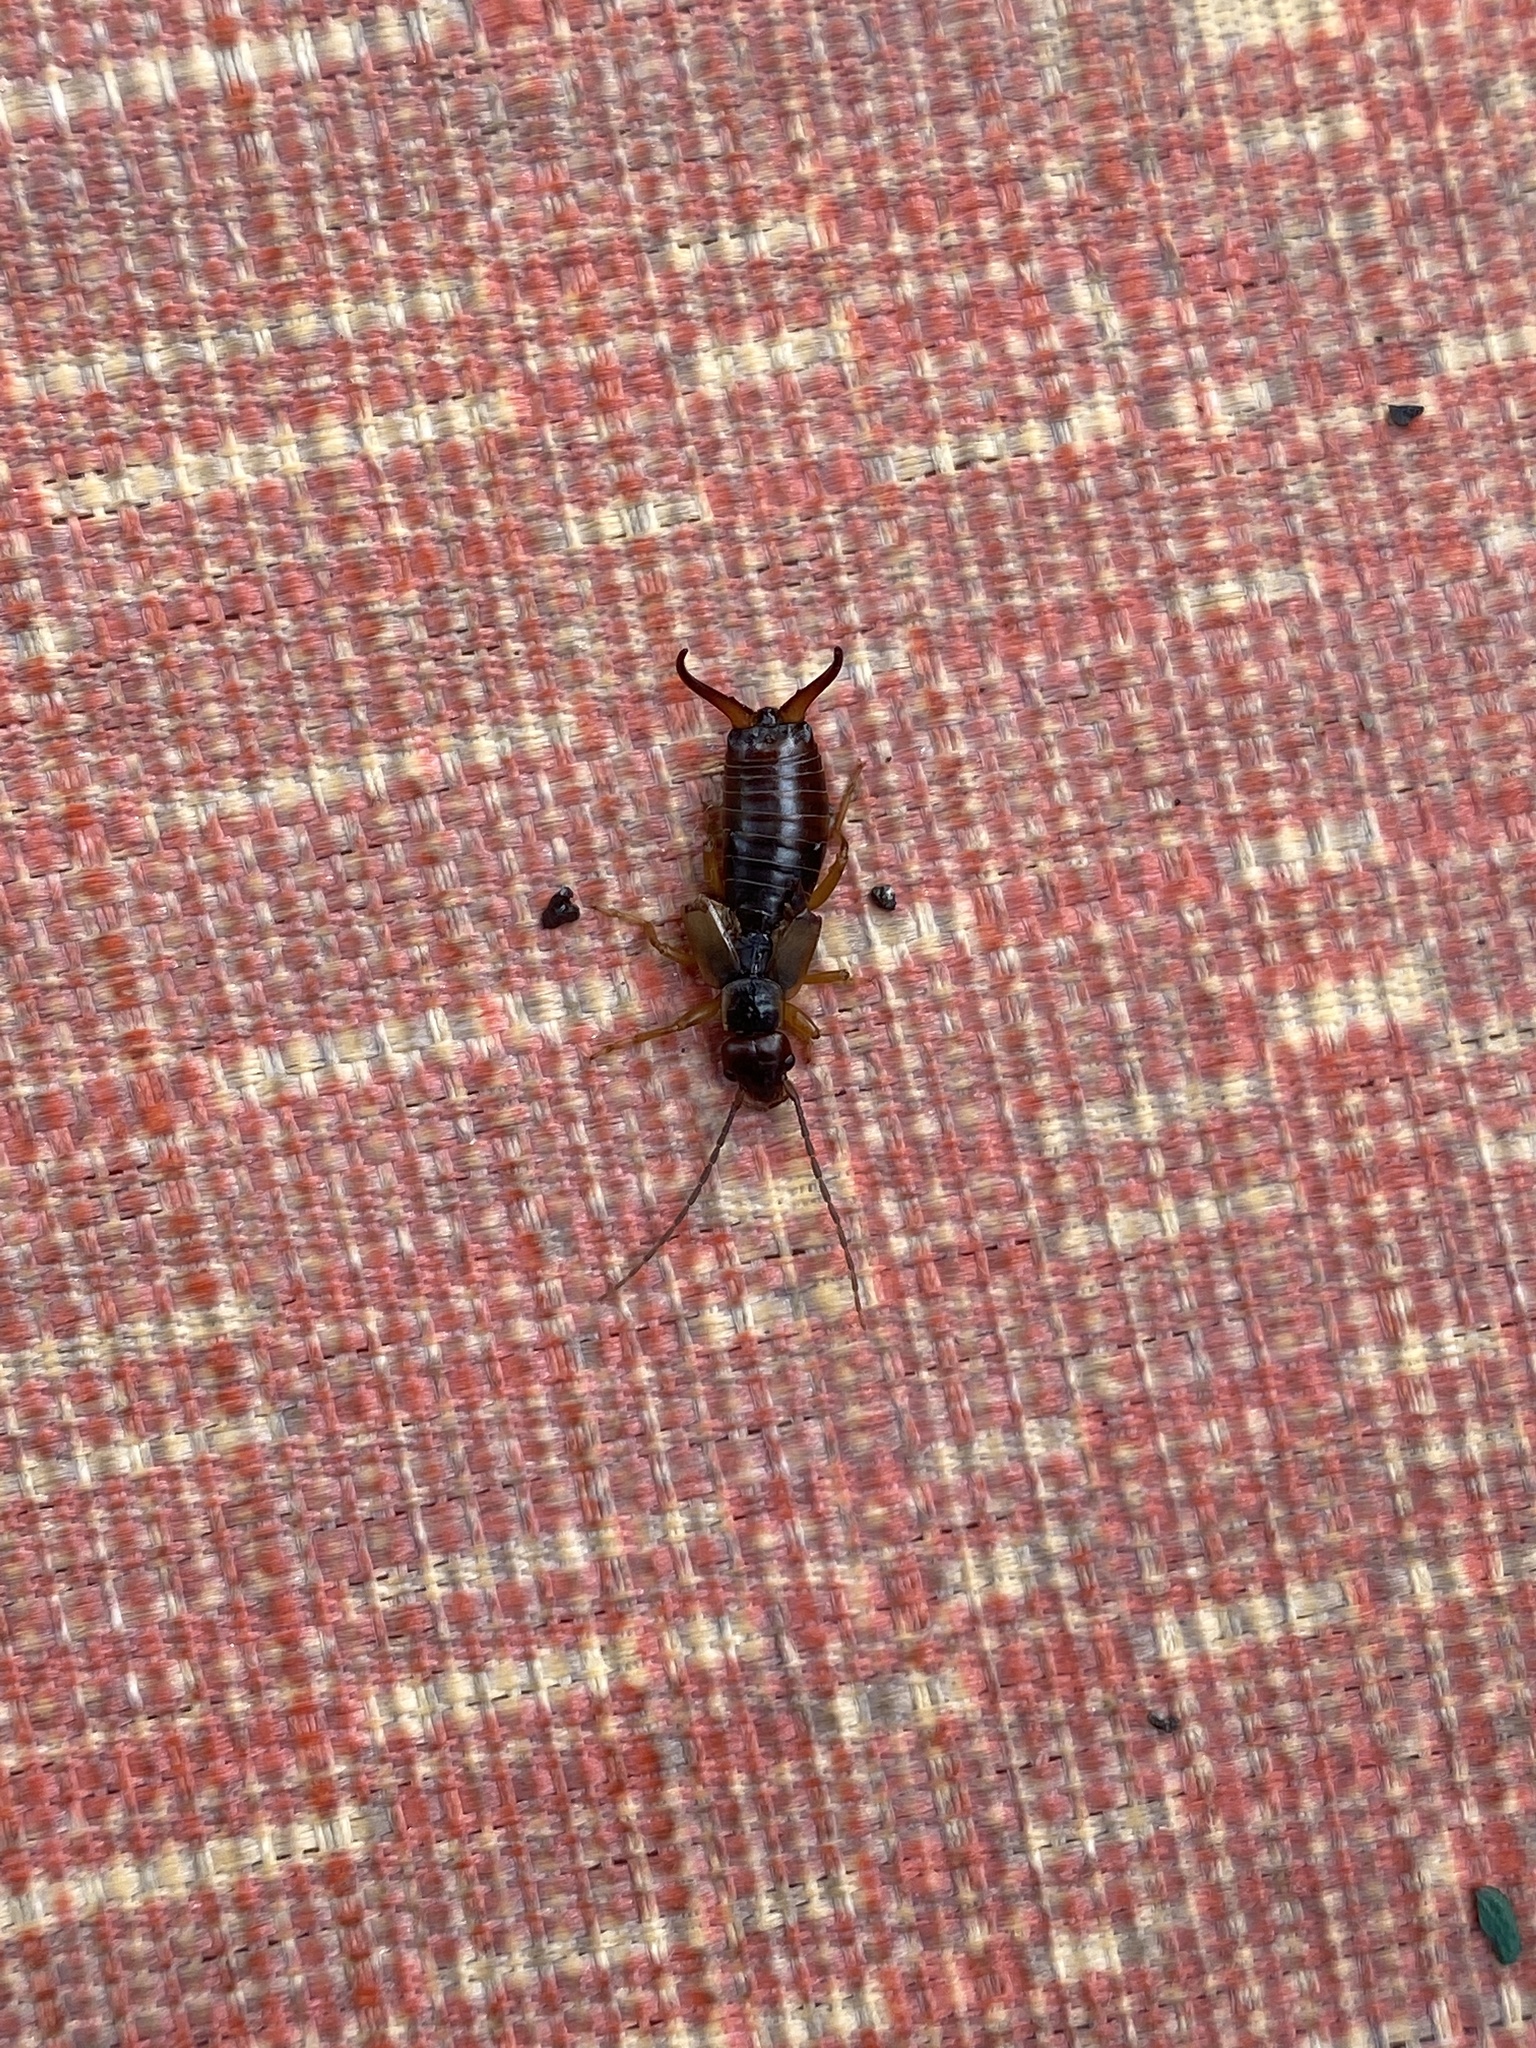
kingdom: Animalia
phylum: Arthropoda
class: Insecta
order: Dermaptera
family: Forficulidae
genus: Forficula
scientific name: Forficula
